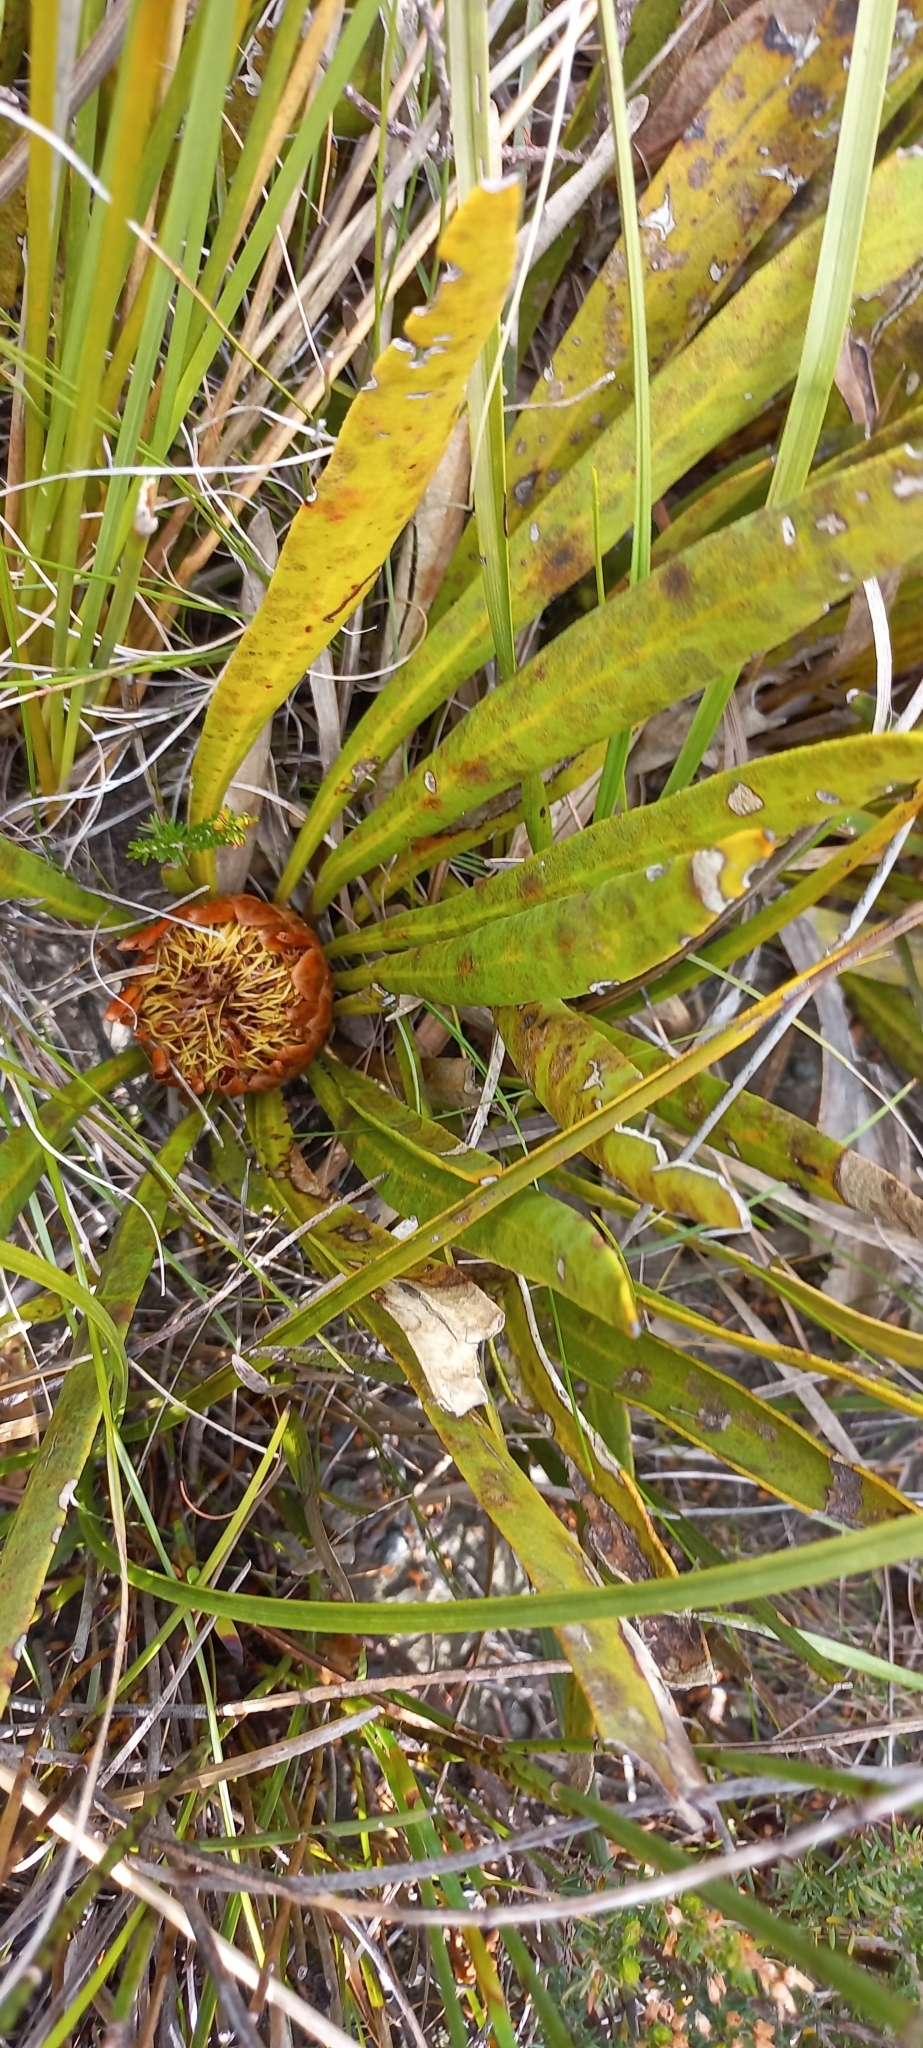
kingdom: Plantae
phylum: Tracheophyta
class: Magnoliopsida
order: Proteales
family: Proteaceae
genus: Protea
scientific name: Protea scabra
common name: Sandpaper-leaf sugarbush
